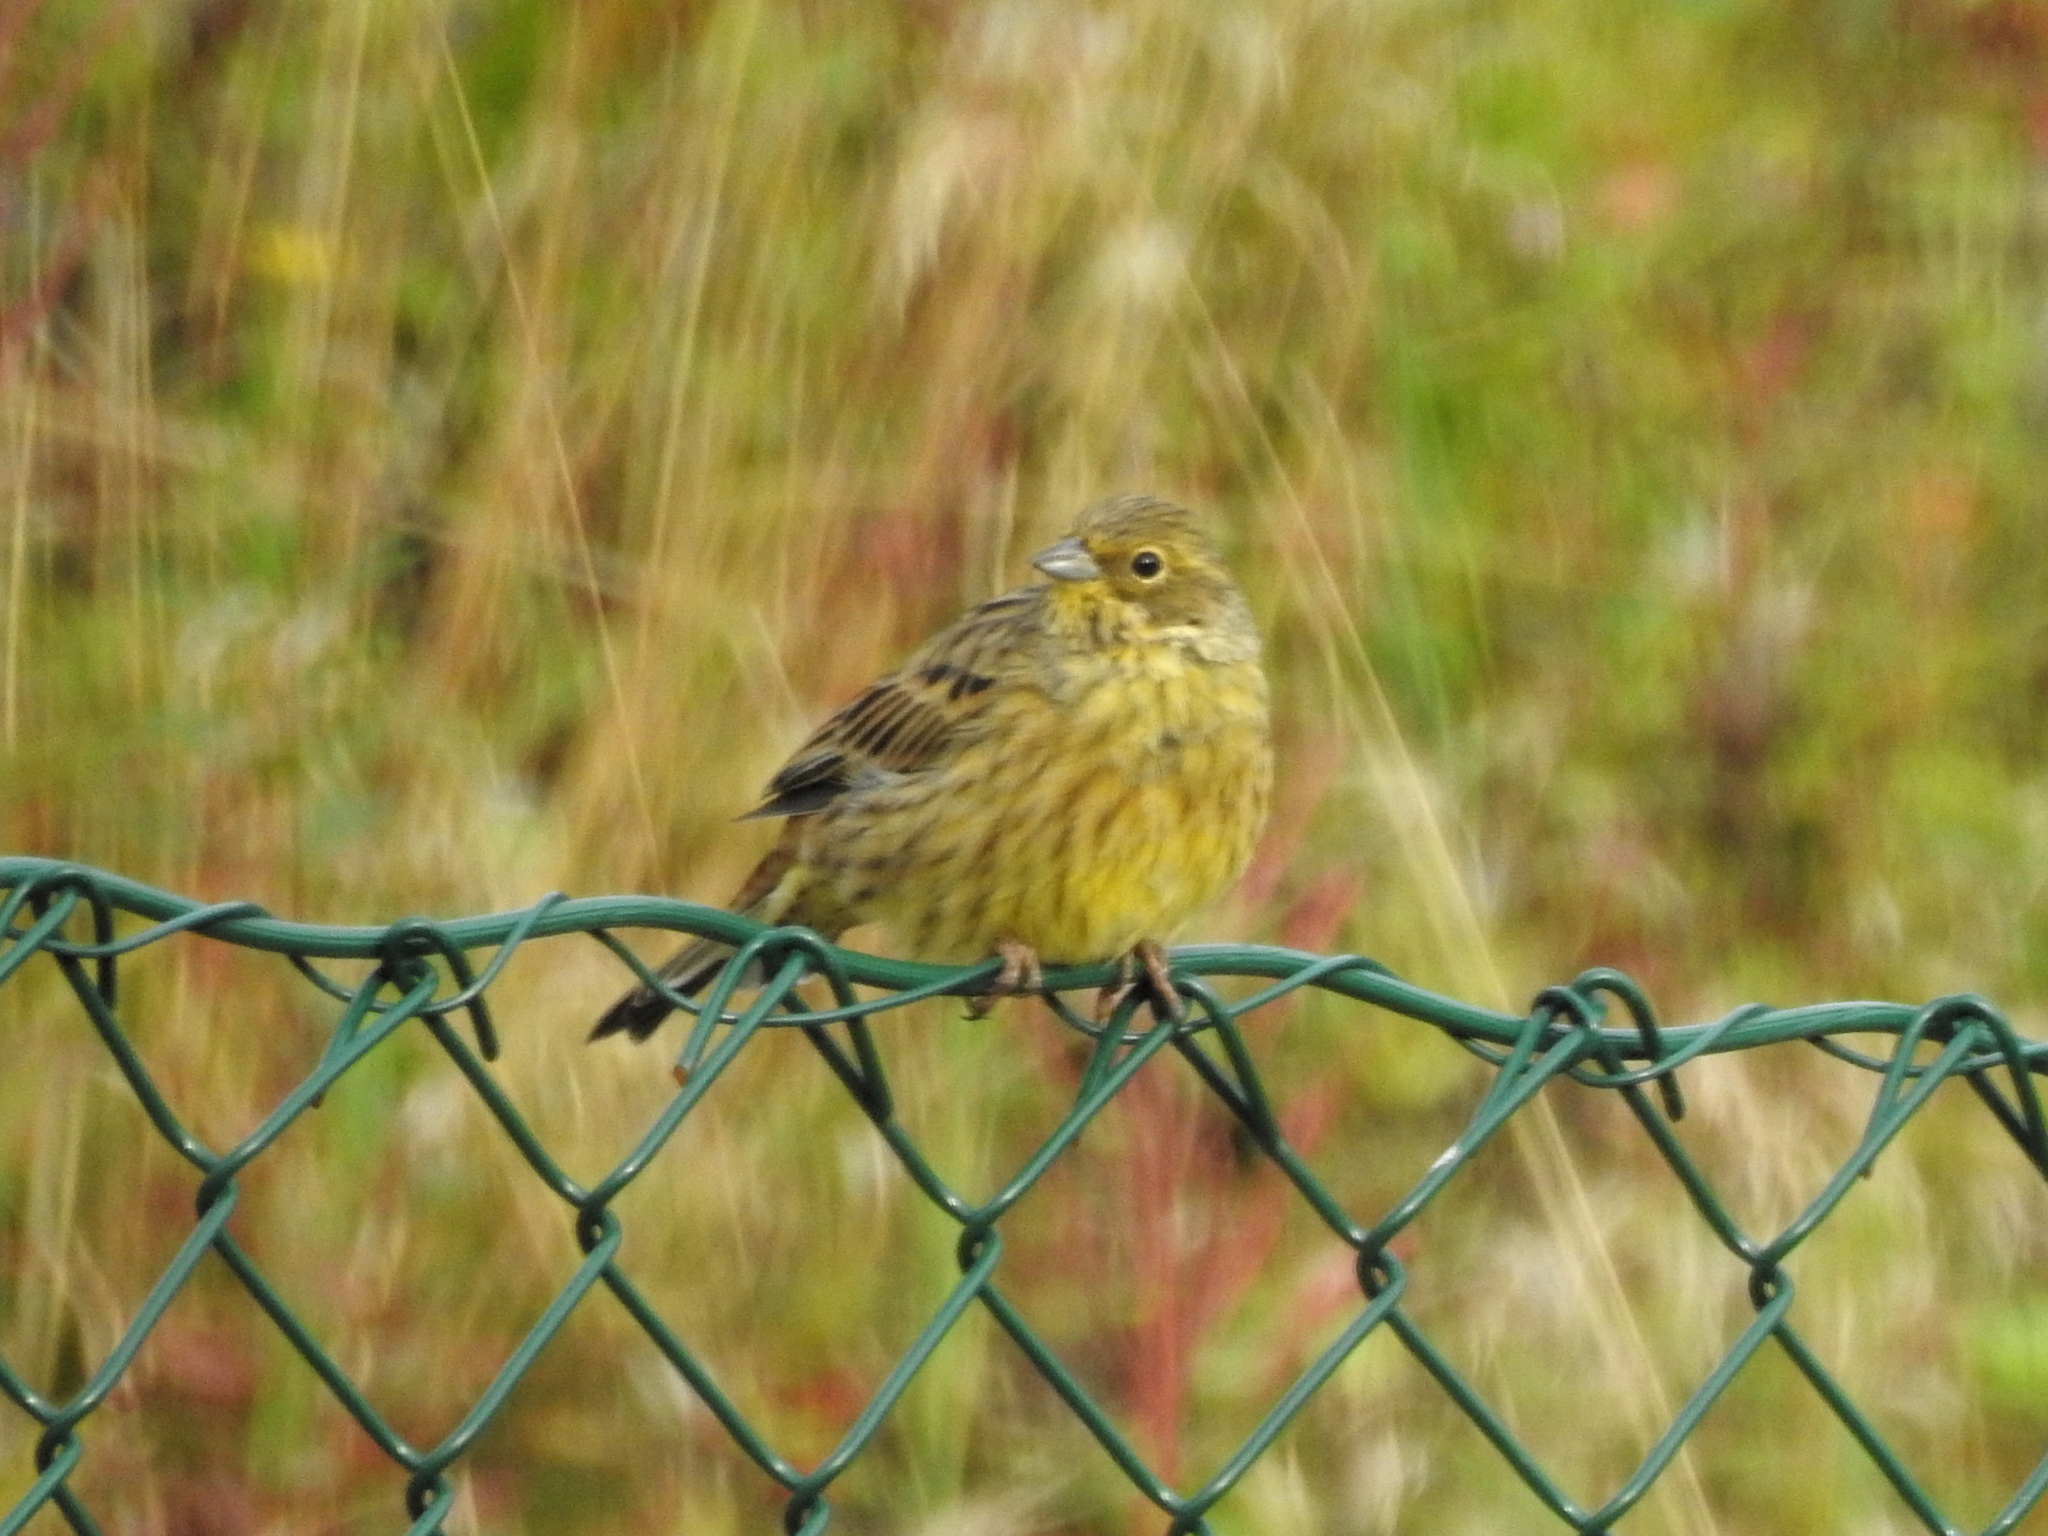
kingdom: Animalia
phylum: Chordata
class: Aves
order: Passeriformes
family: Emberizidae
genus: Emberiza
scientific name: Emberiza citrinella
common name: Yellowhammer
